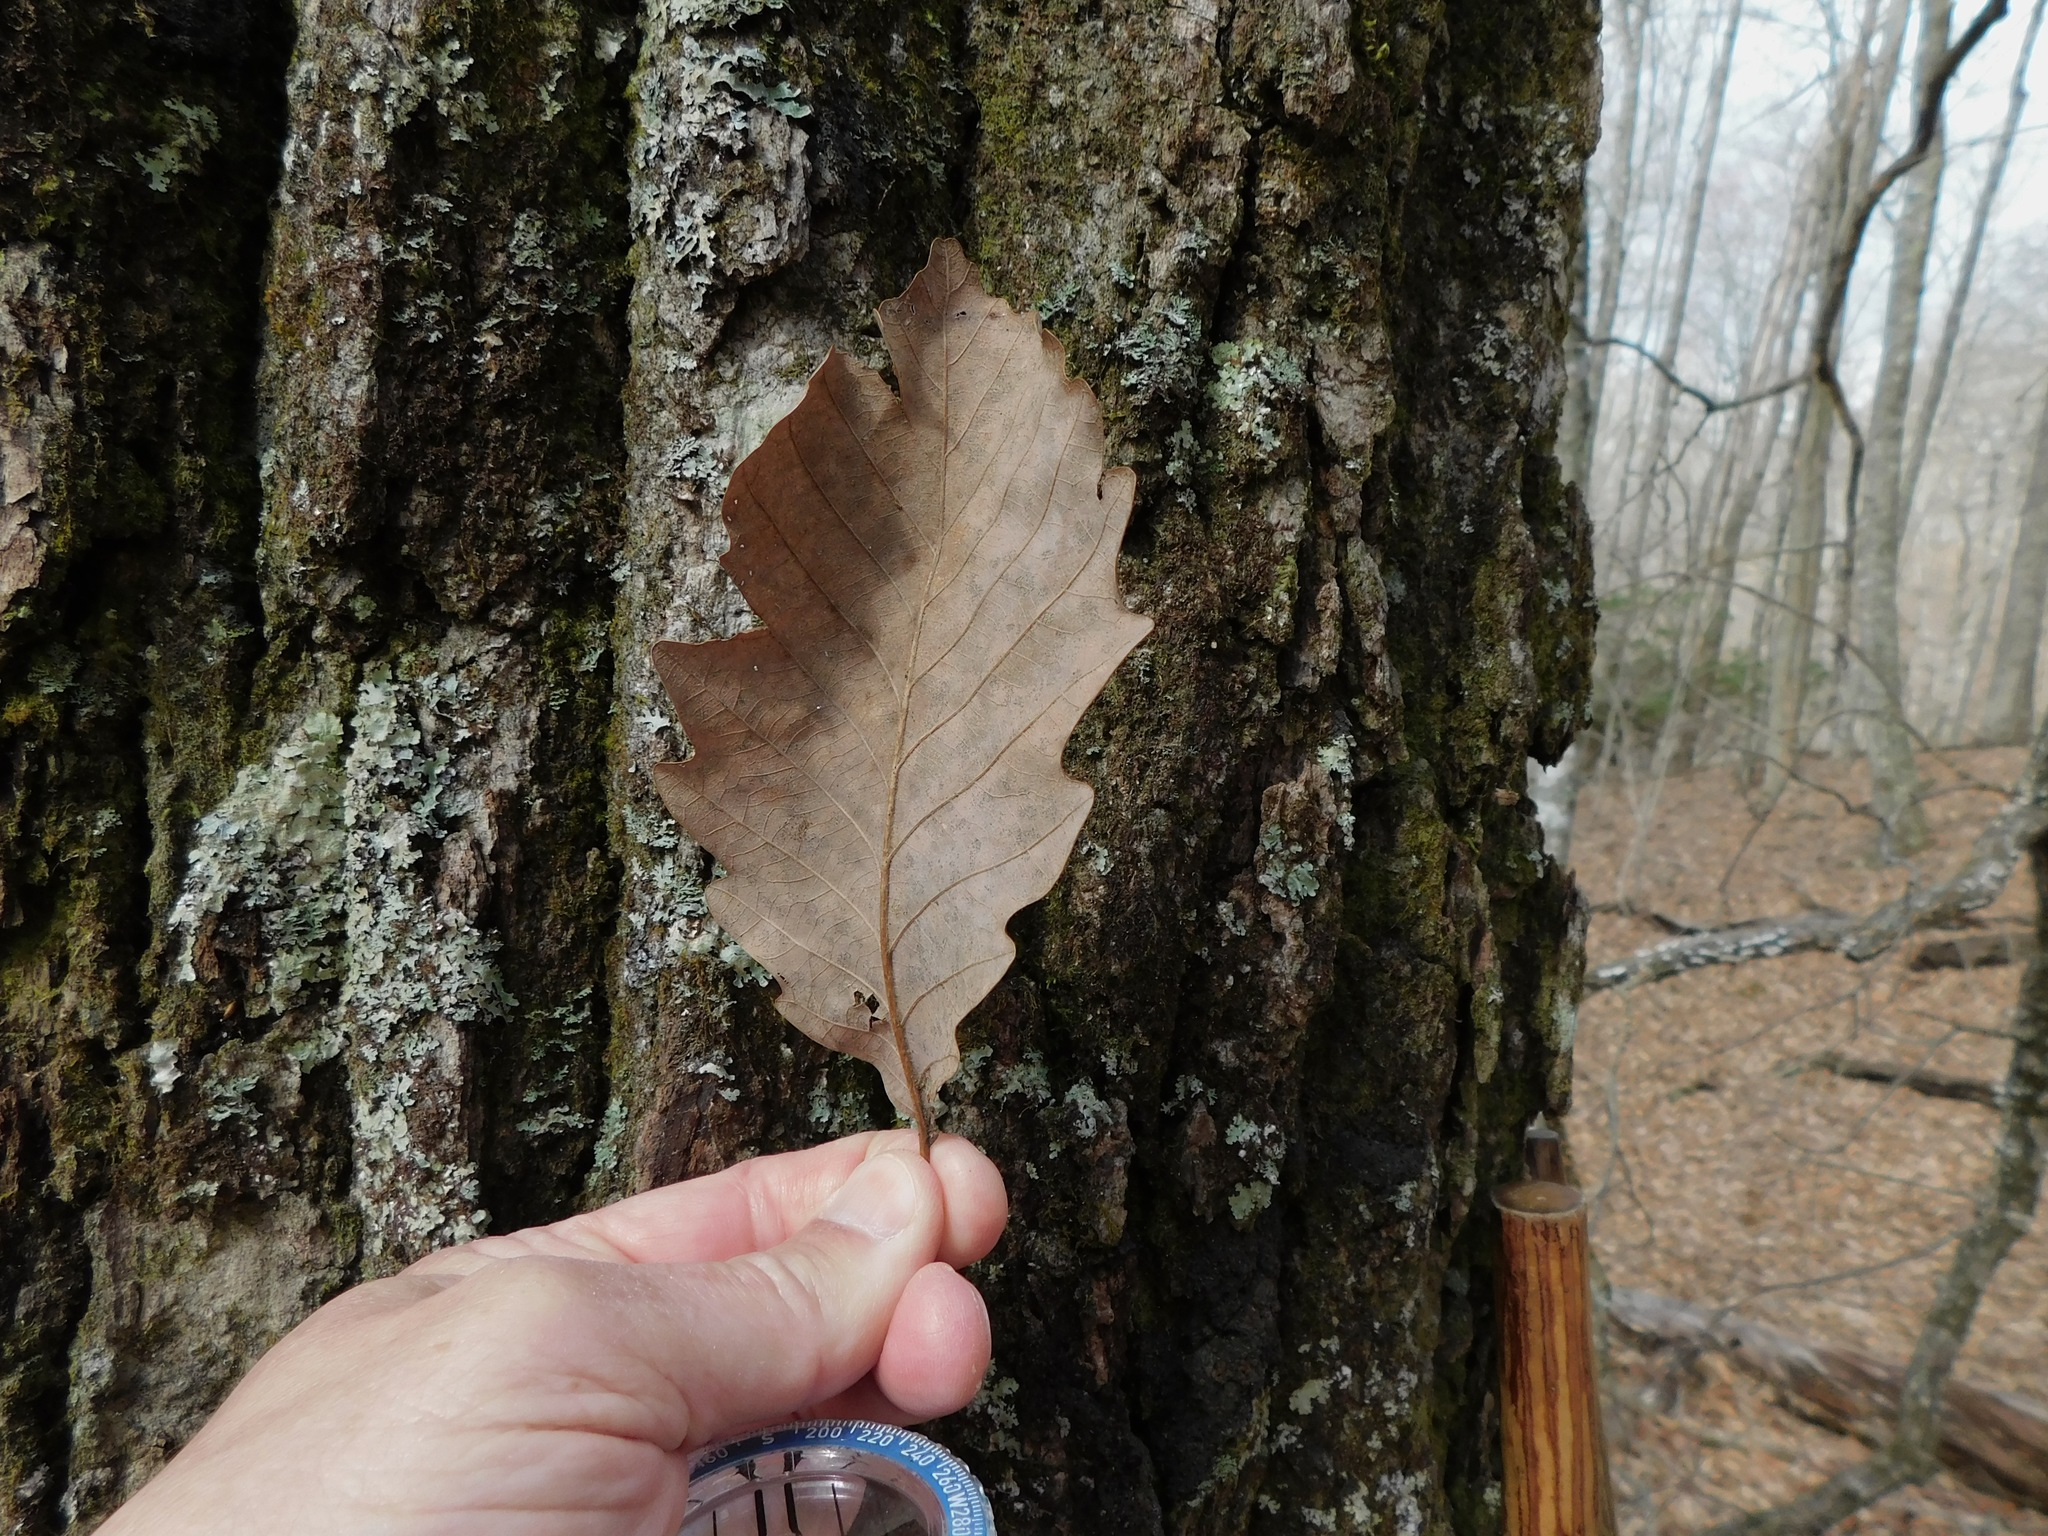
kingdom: Plantae
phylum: Tracheophyta
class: Magnoliopsida
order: Fagales
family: Fagaceae
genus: Quercus
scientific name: Quercus montana
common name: Chestnut oak
